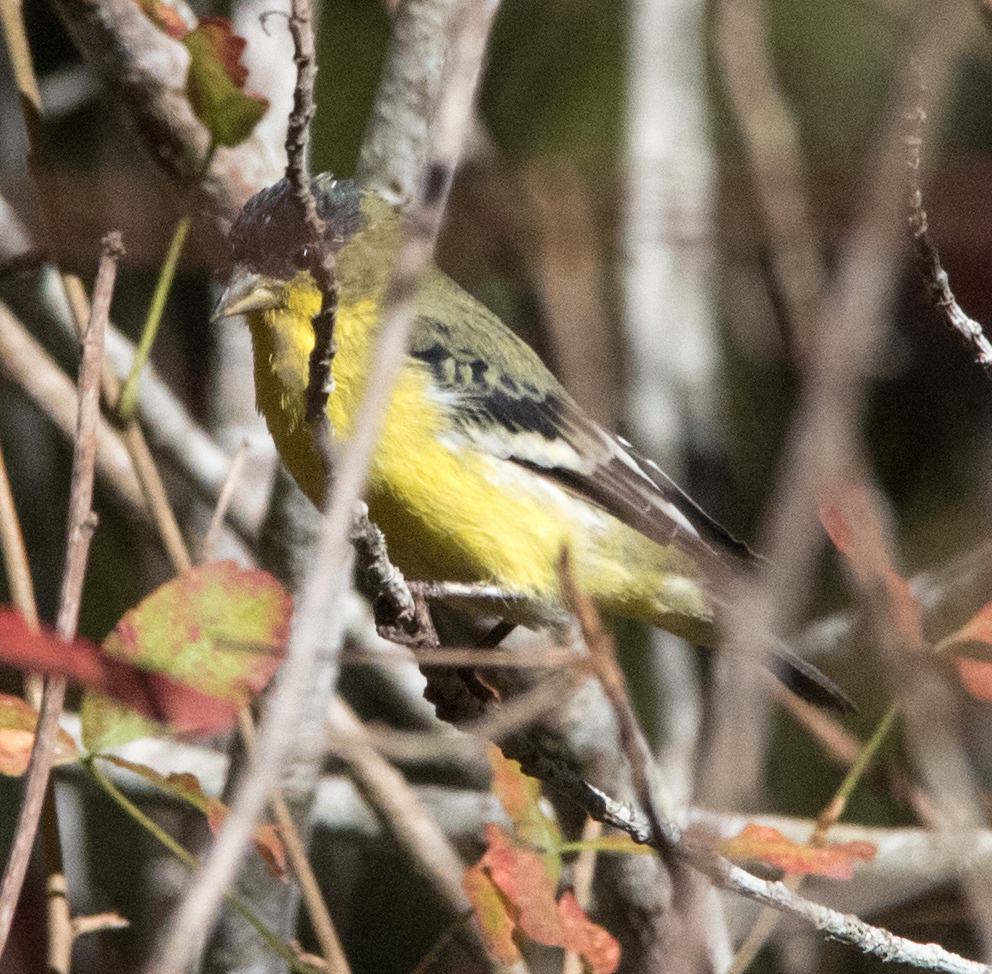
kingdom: Animalia
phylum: Chordata
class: Aves
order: Passeriformes
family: Fringillidae
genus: Spinus
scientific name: Spinus psaltria
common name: Lesser goldfinch
